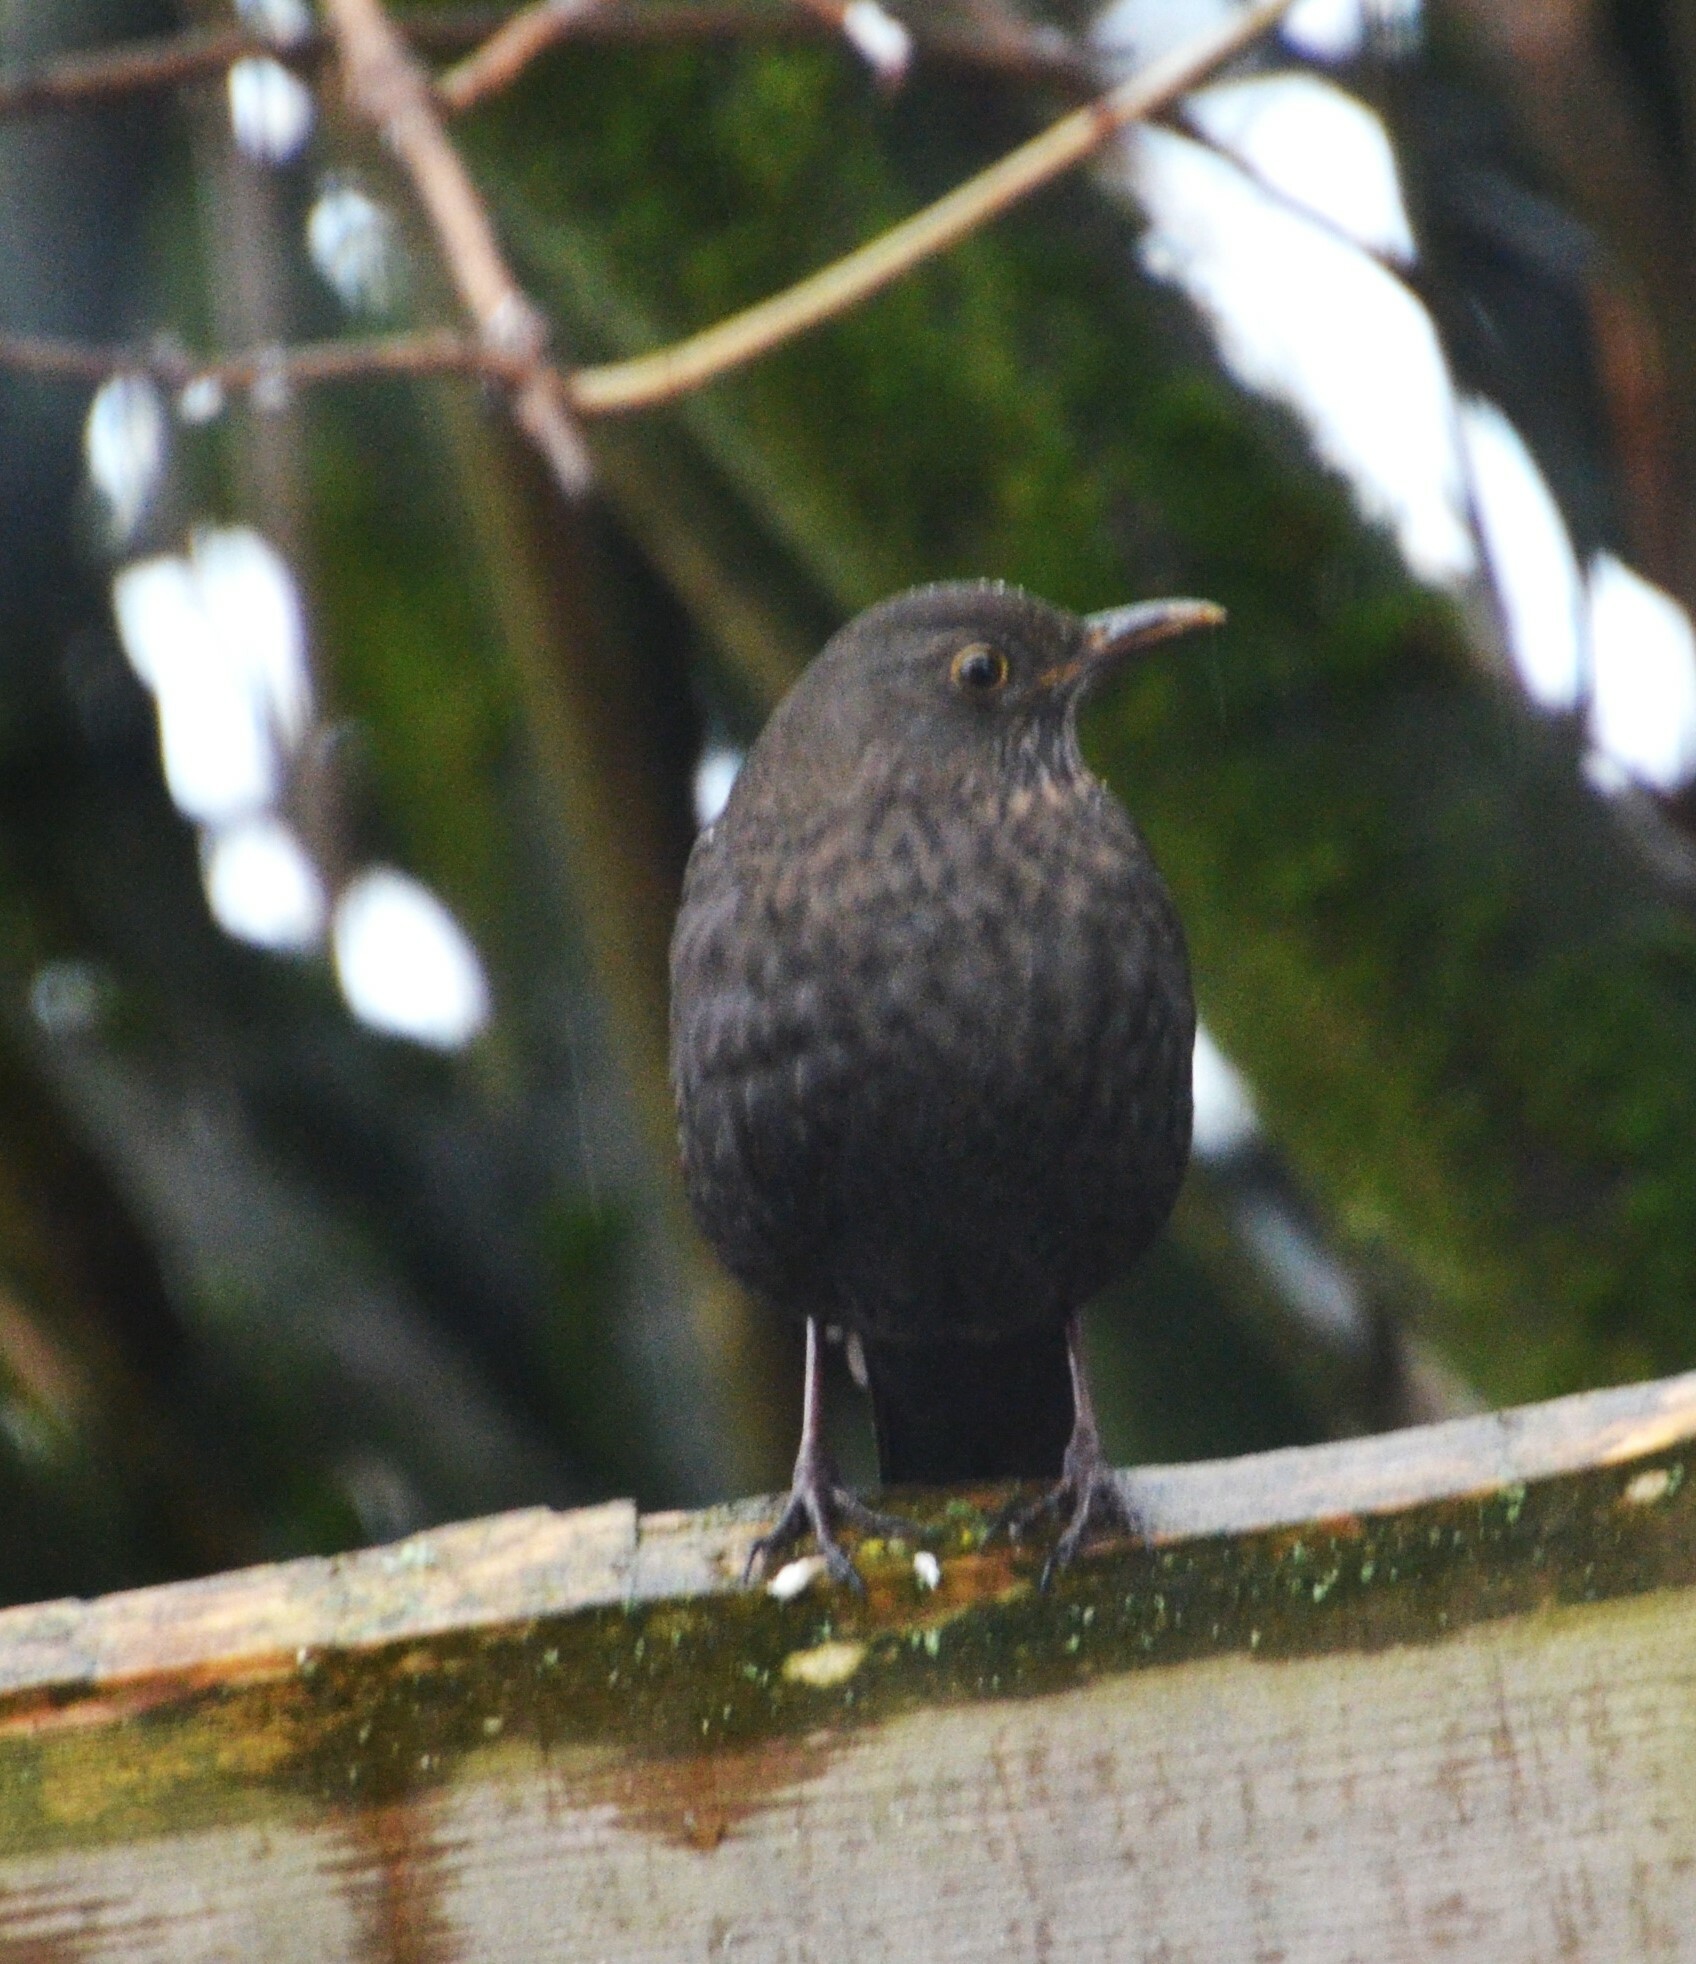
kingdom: Animalia
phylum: Chordata
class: Aves
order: Passeriformes
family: Turdidae
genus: Turdus
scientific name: Turdus merula
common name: Common blackbird
